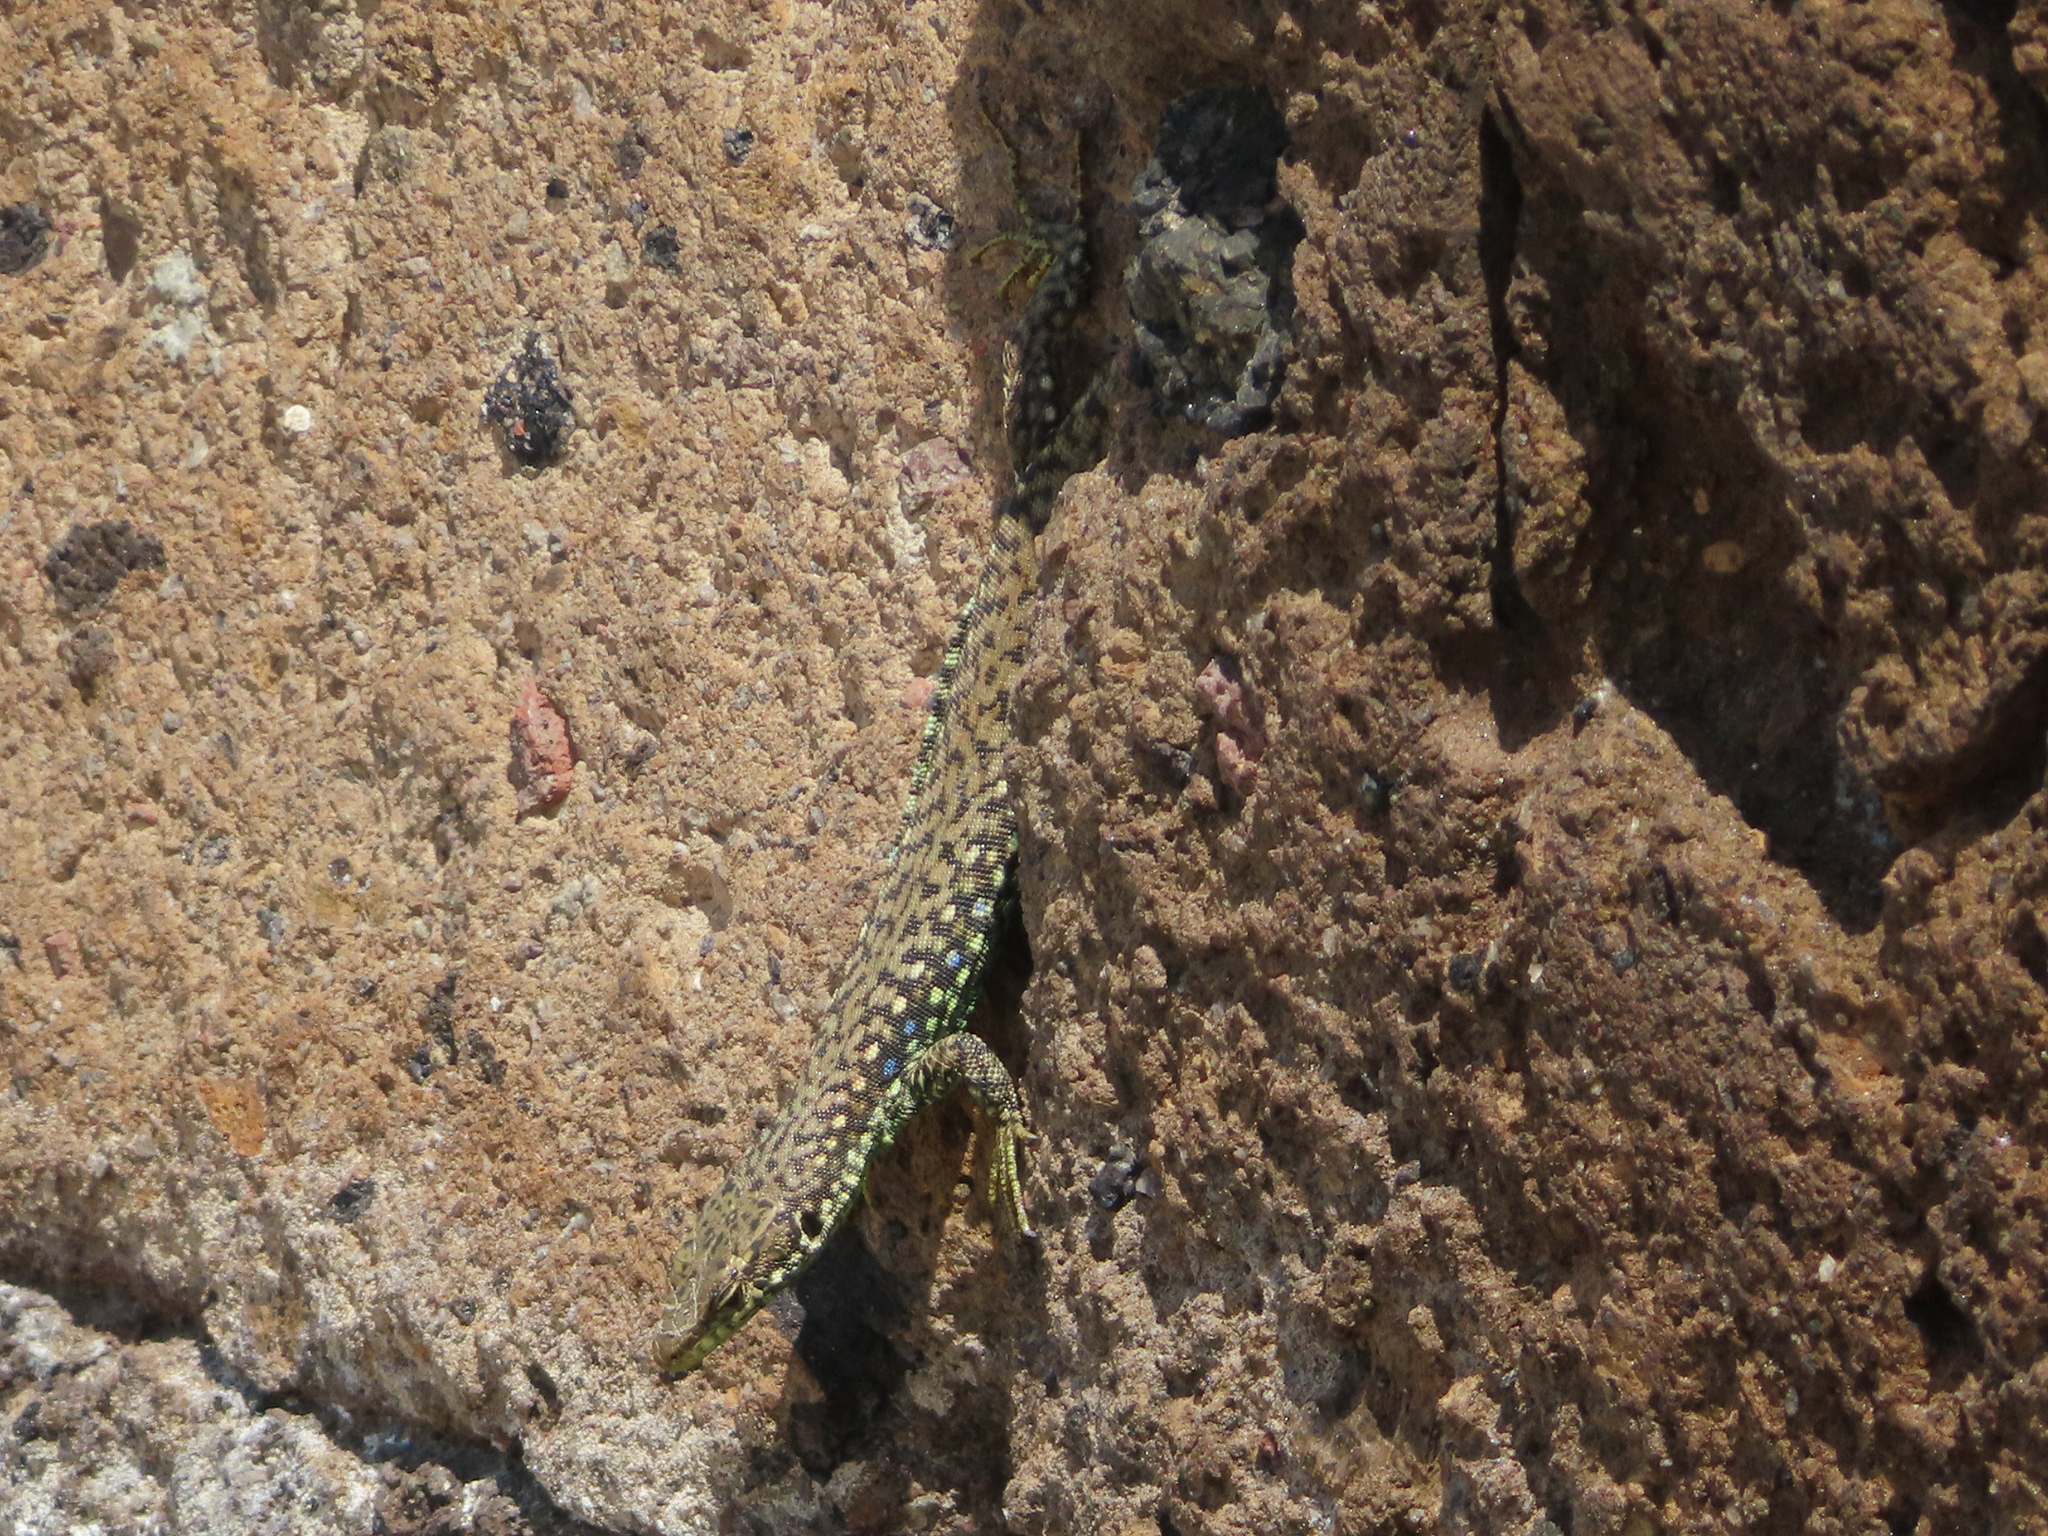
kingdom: Animalia
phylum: Chordata
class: Squamata
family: Lacertidae
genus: Darevskia
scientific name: Darevskia
